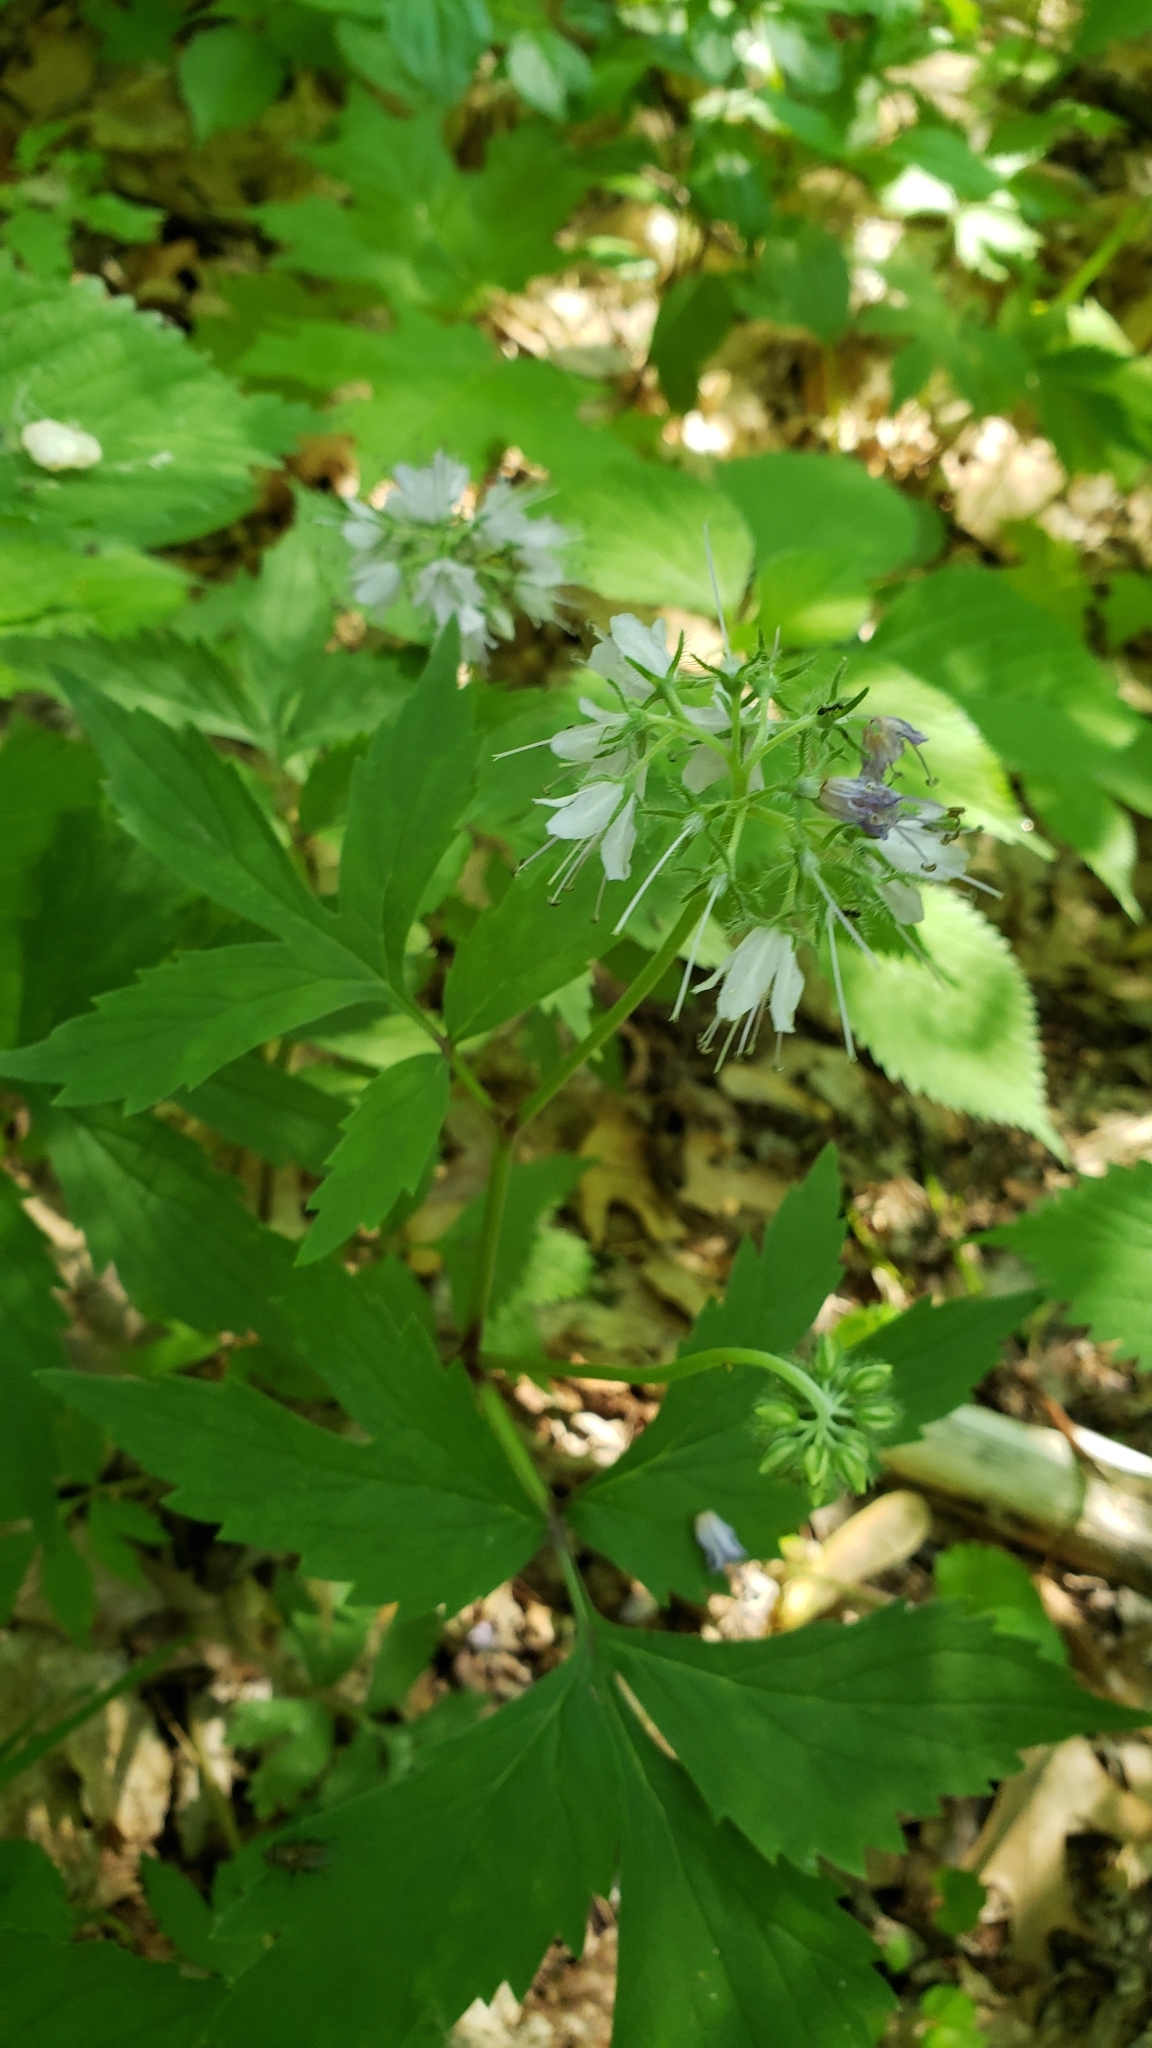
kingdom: Plantae
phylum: Tracheophyta
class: Magnoliopsida
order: Boraginales
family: Hydrophyllaceae
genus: Hydrophyllum
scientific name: Hydrophyllum virginianum
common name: Virginia waterleaf
